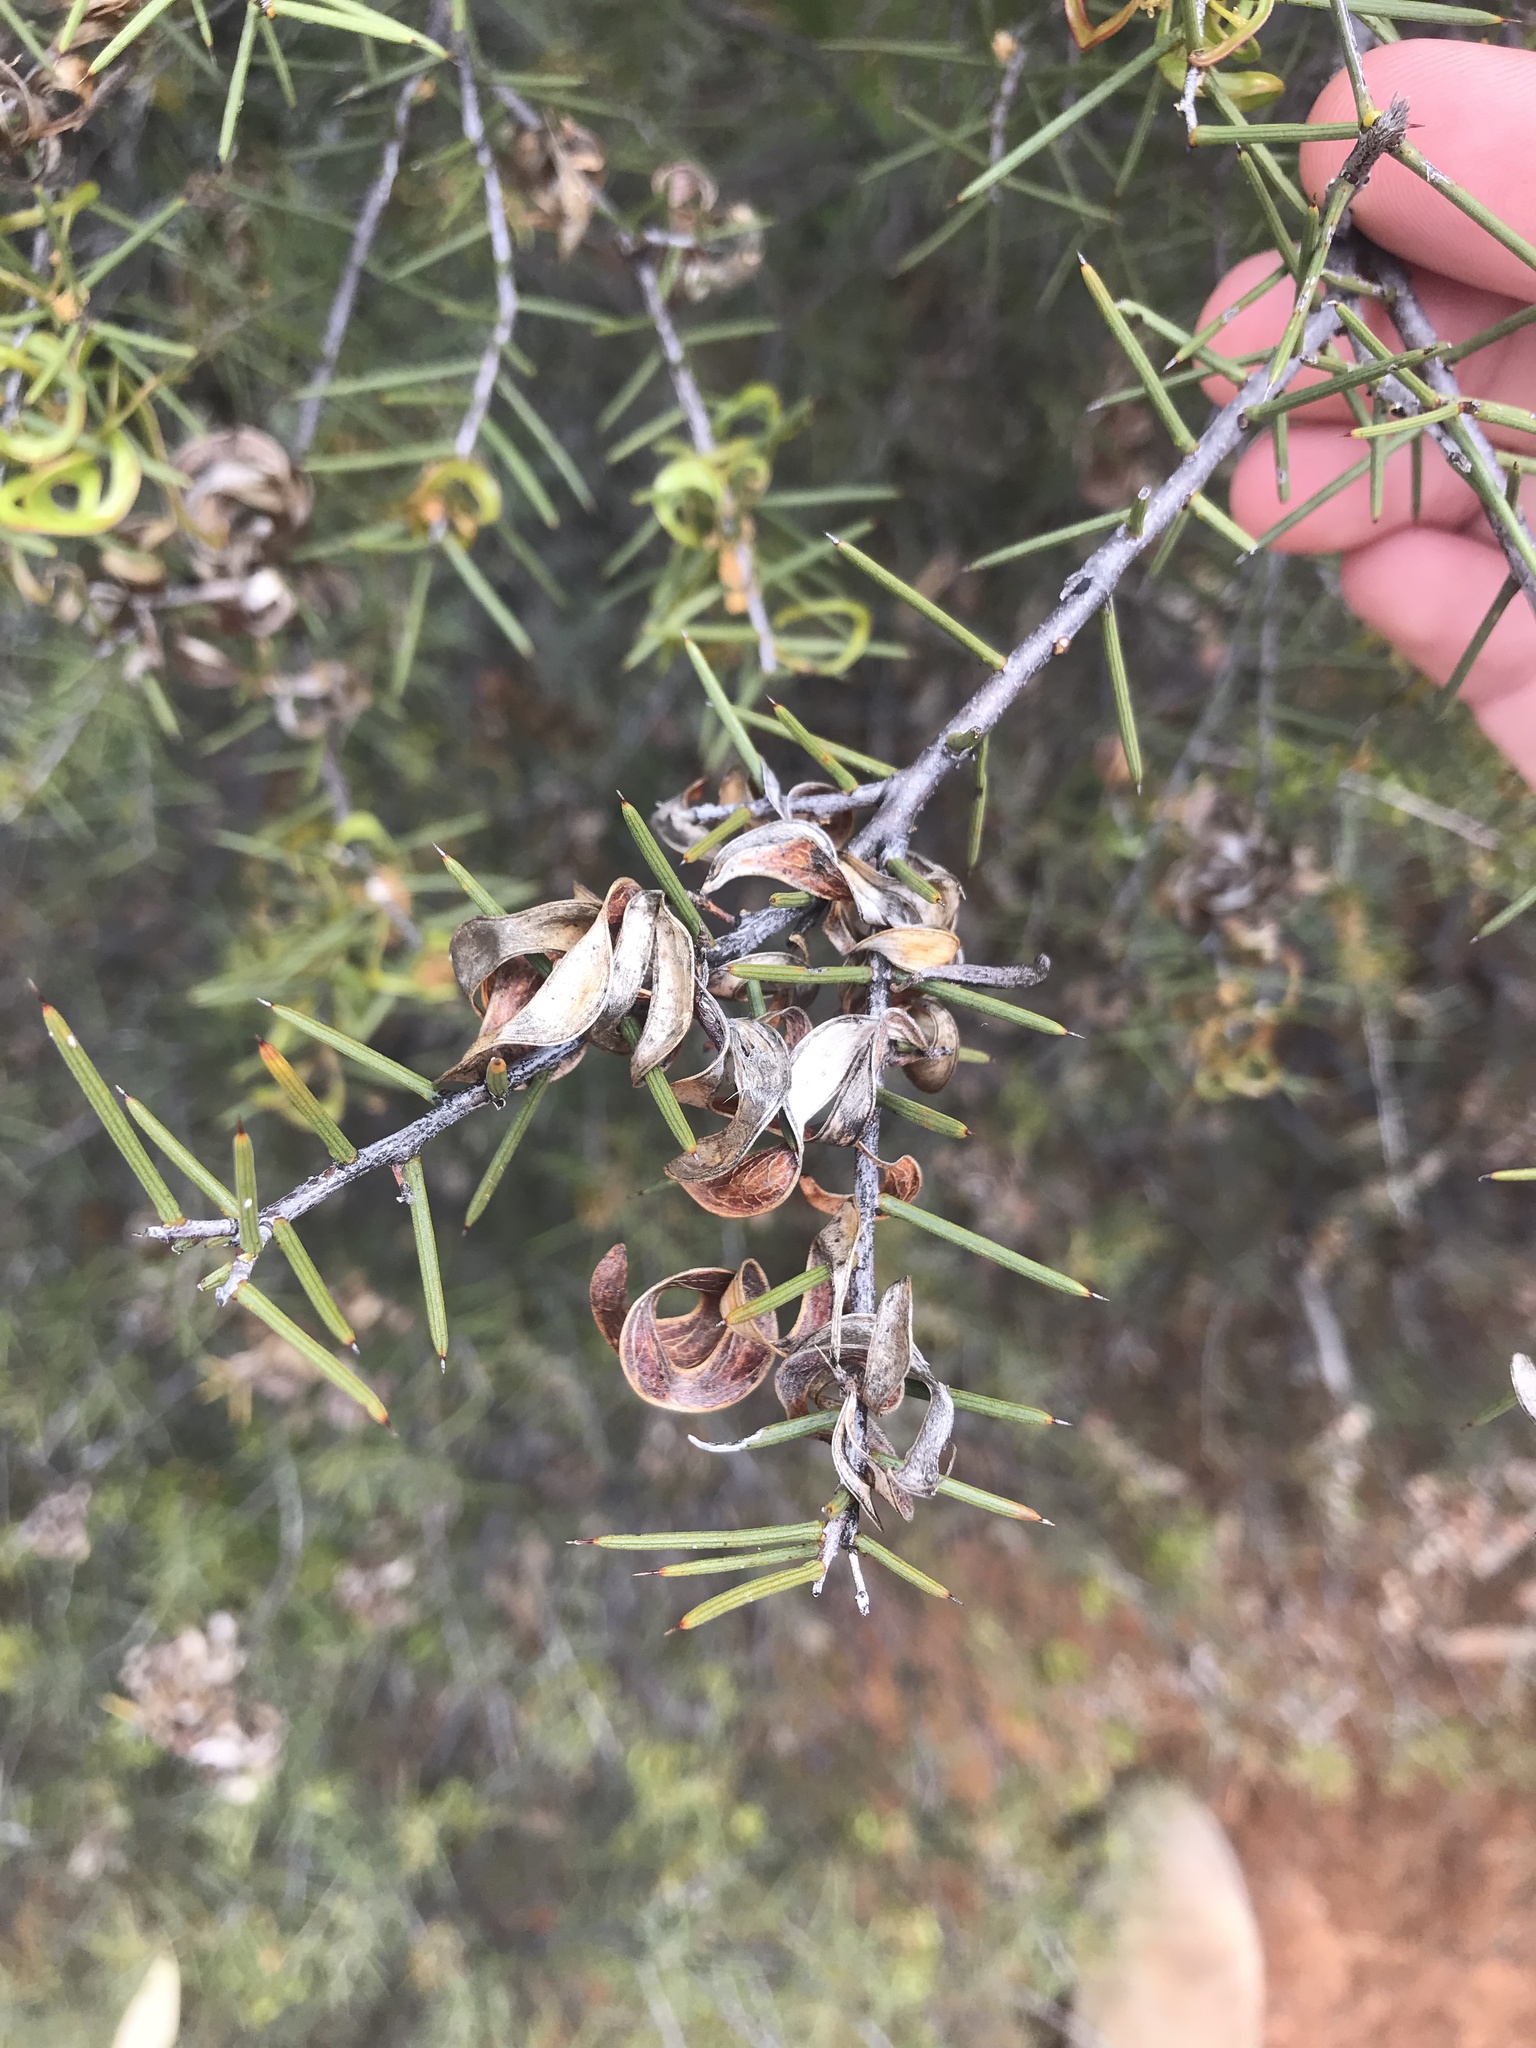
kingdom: Plantae
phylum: Tracheophyta
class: Magnoliopsida
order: Fabales
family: Fabaceae
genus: Acacia
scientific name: Acacia colletioides
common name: Spinebush
